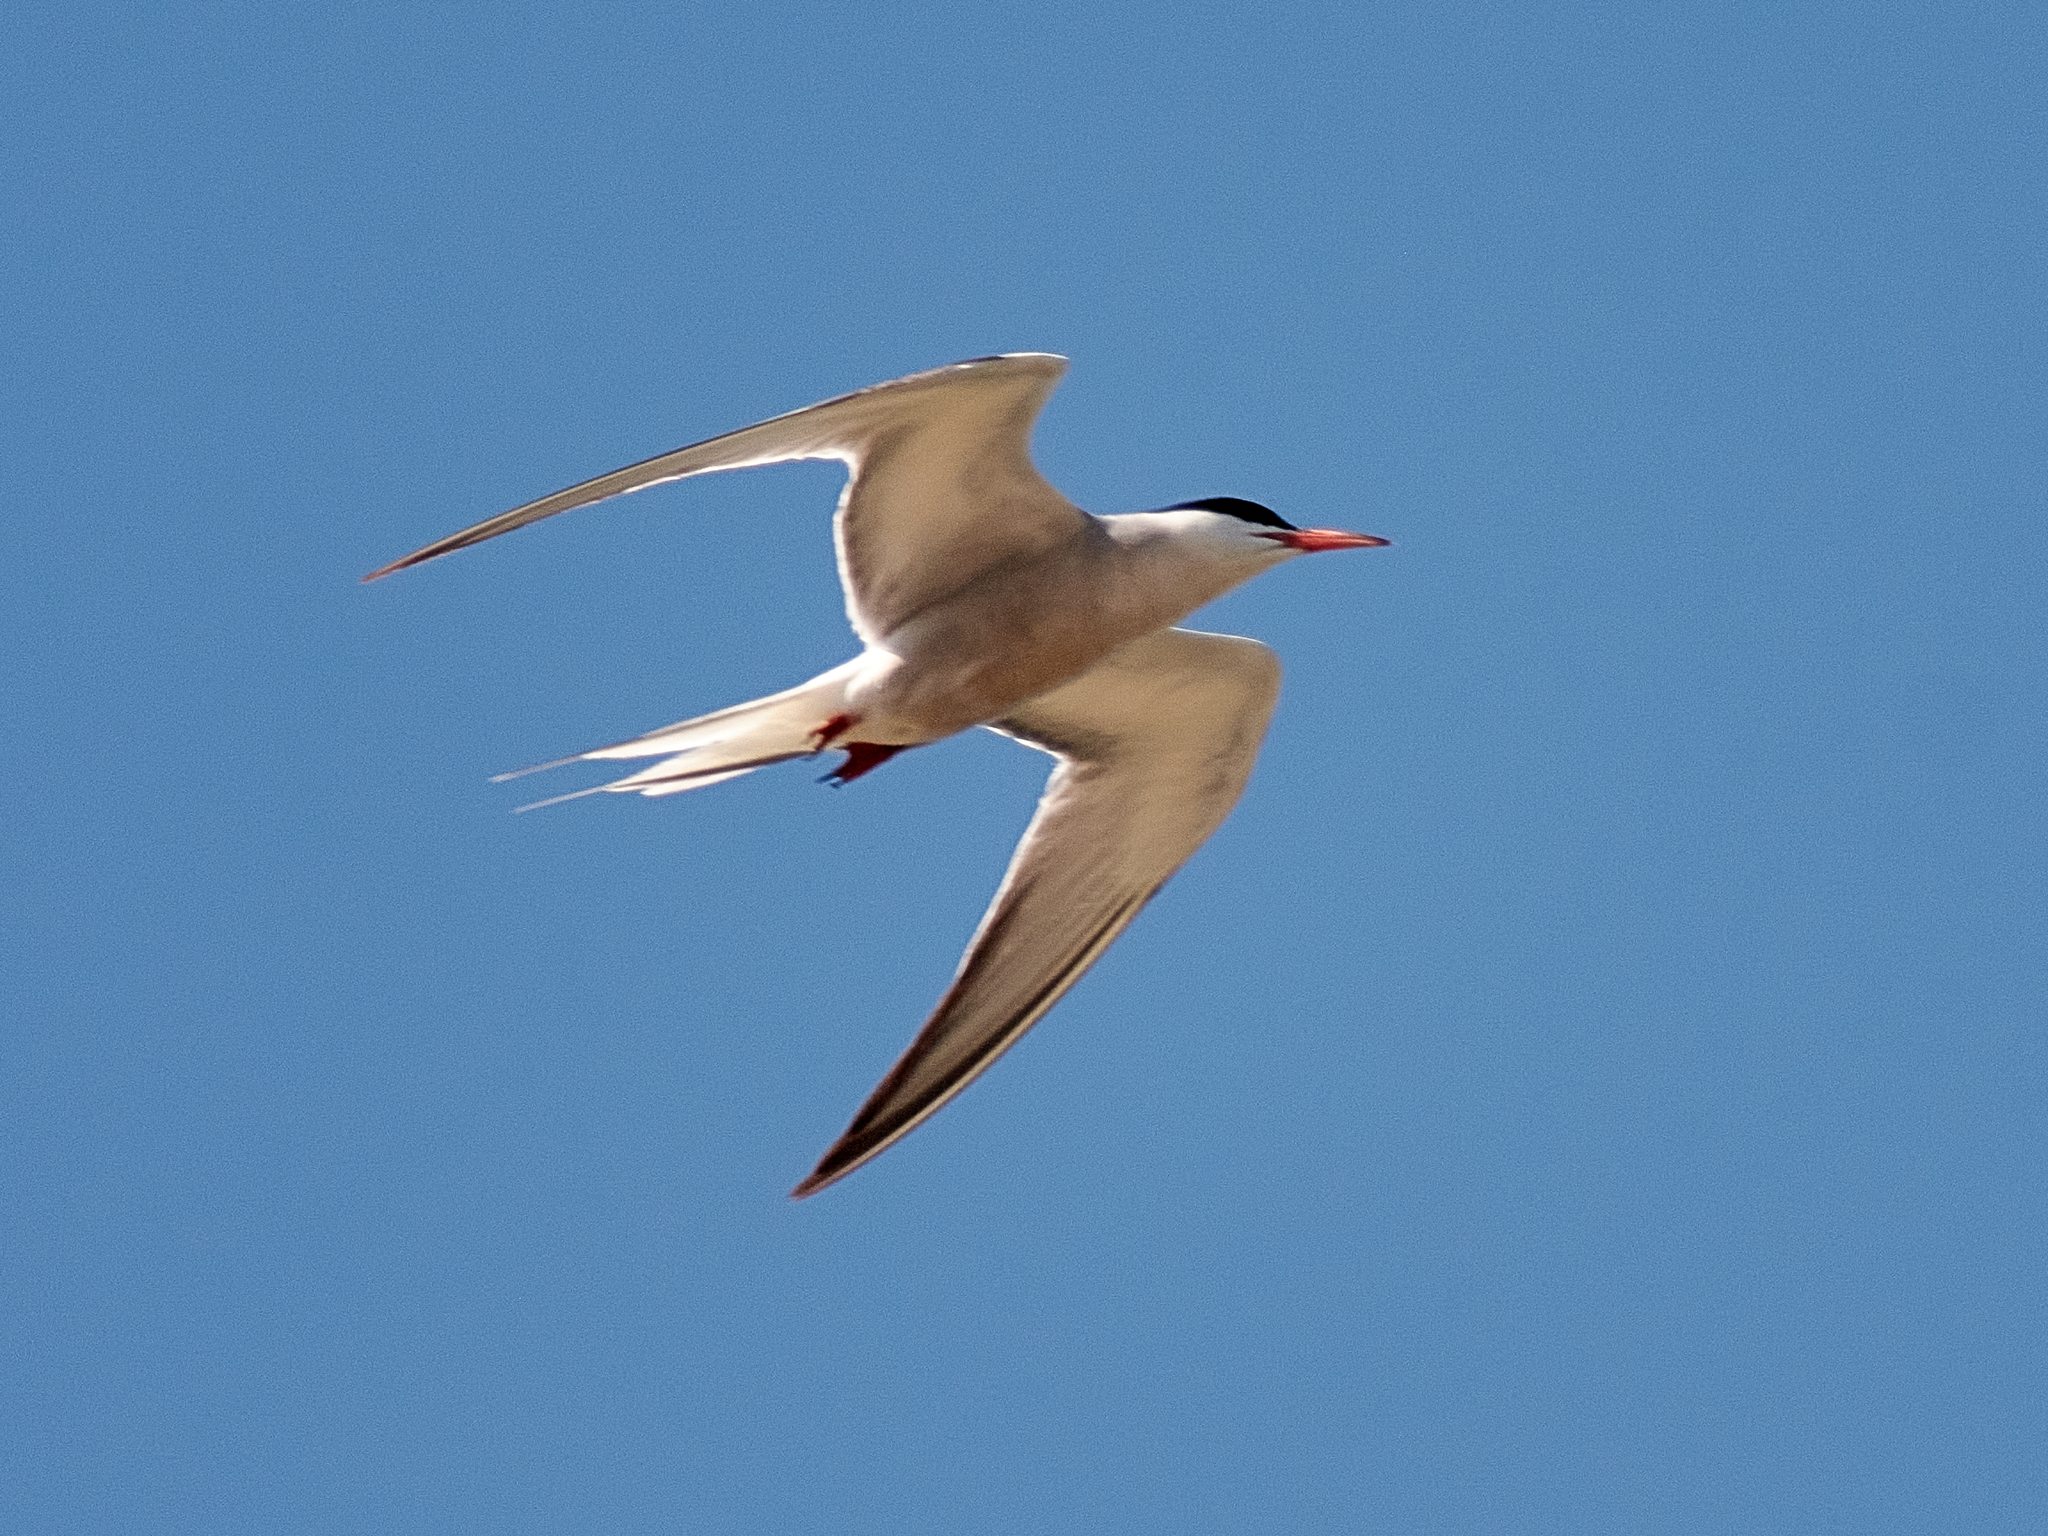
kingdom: Animalia
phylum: Chordata
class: Aves
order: Charadriiformes
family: Laridae
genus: Sterna
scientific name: Sterna hirundo
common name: Common tern
